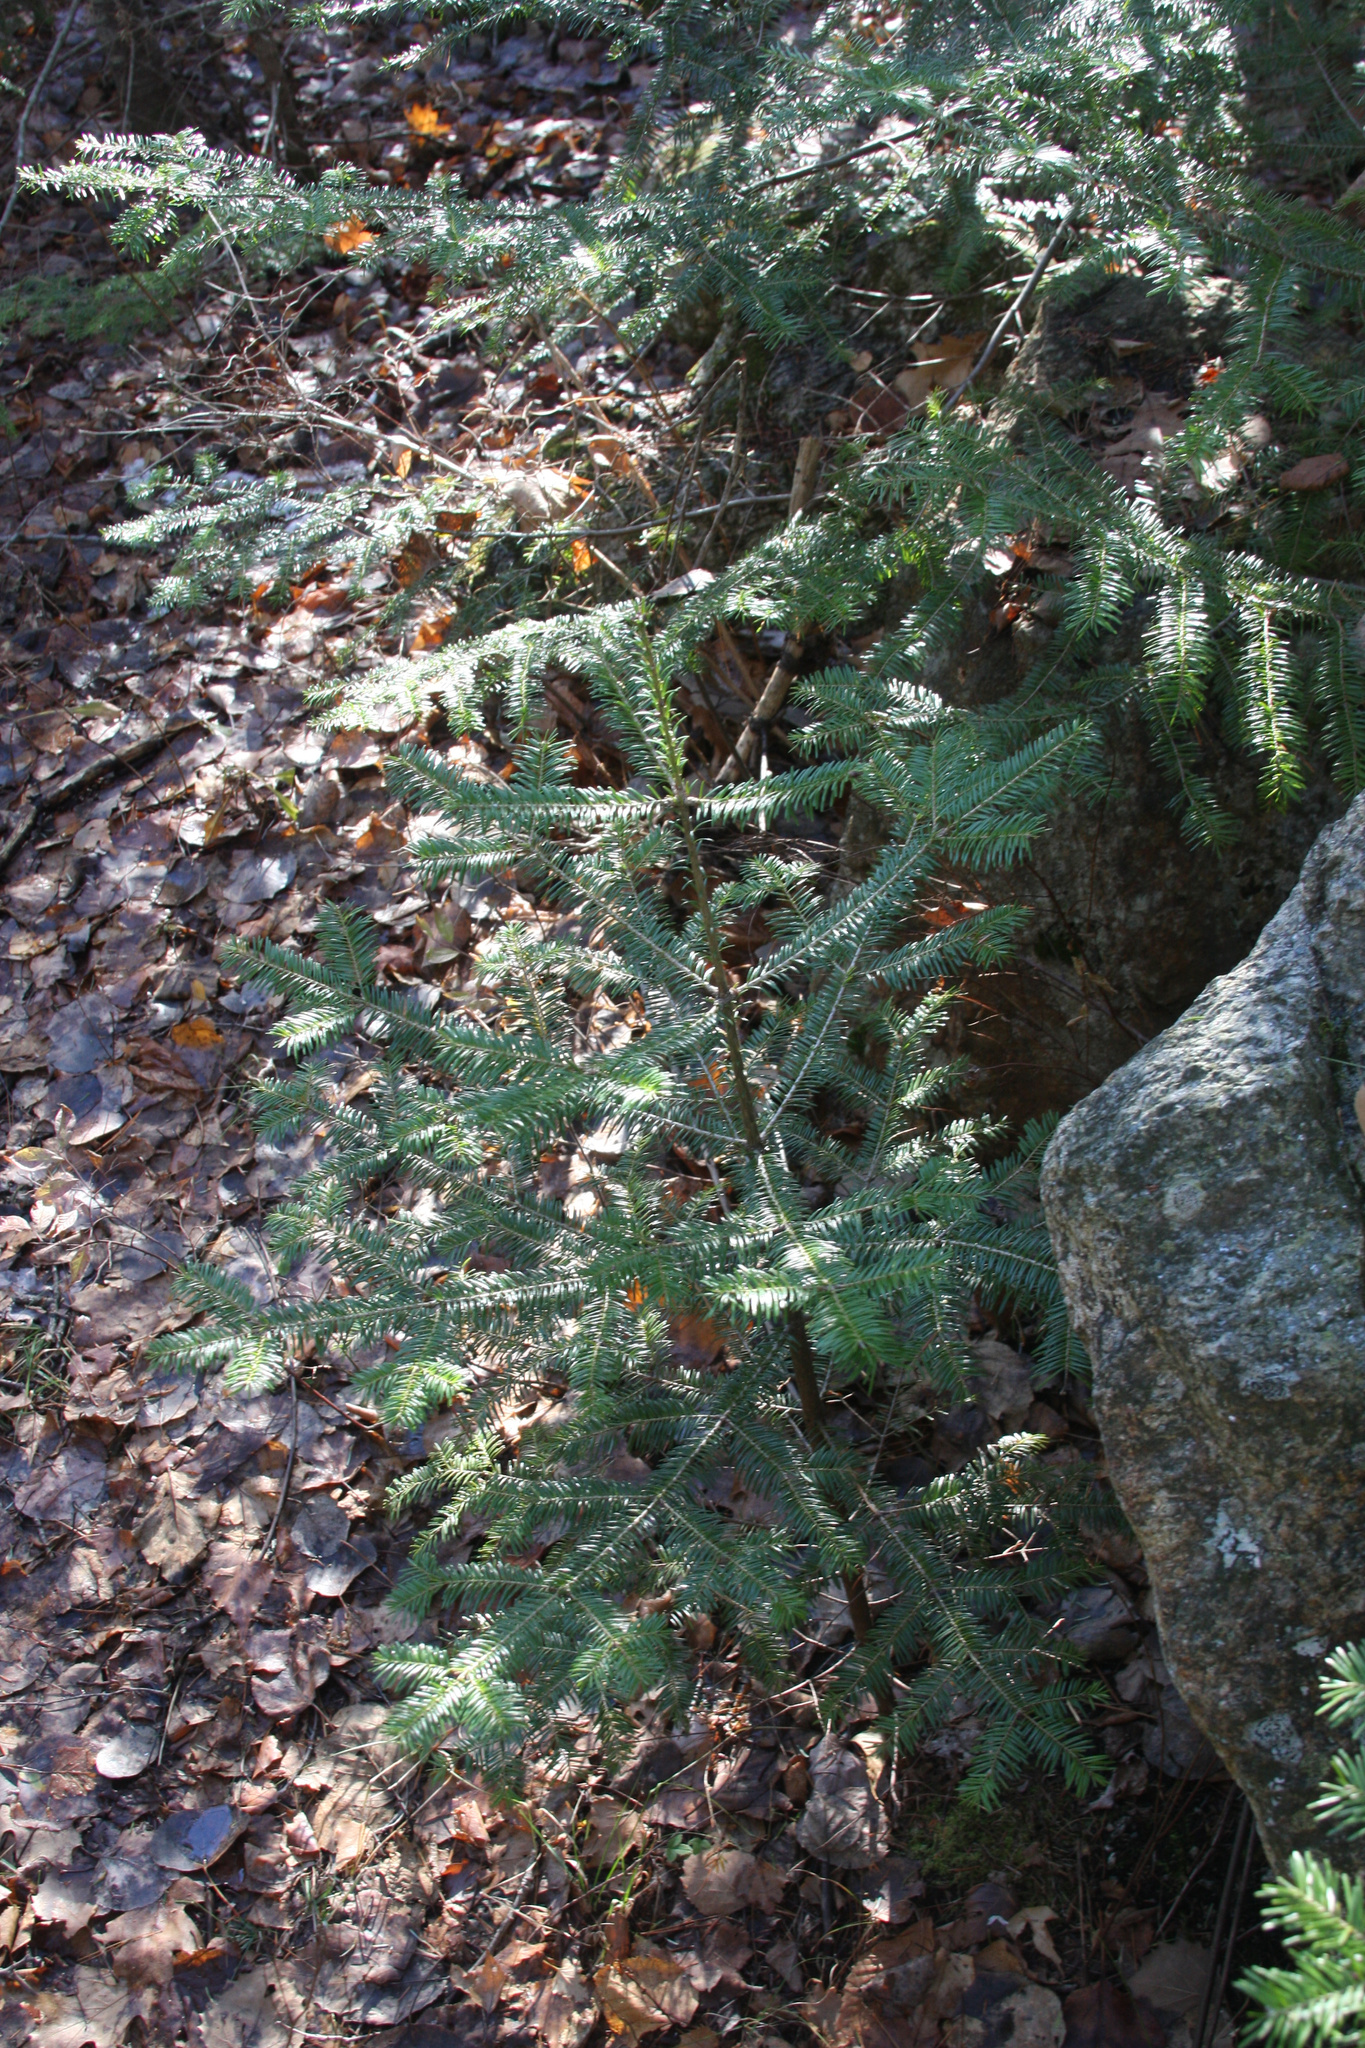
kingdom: Plantae
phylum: Tracheophyta
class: Pinopsida
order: Pinales
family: Pinaceae
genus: Abies
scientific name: Abies balsamea
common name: Balsam fir
